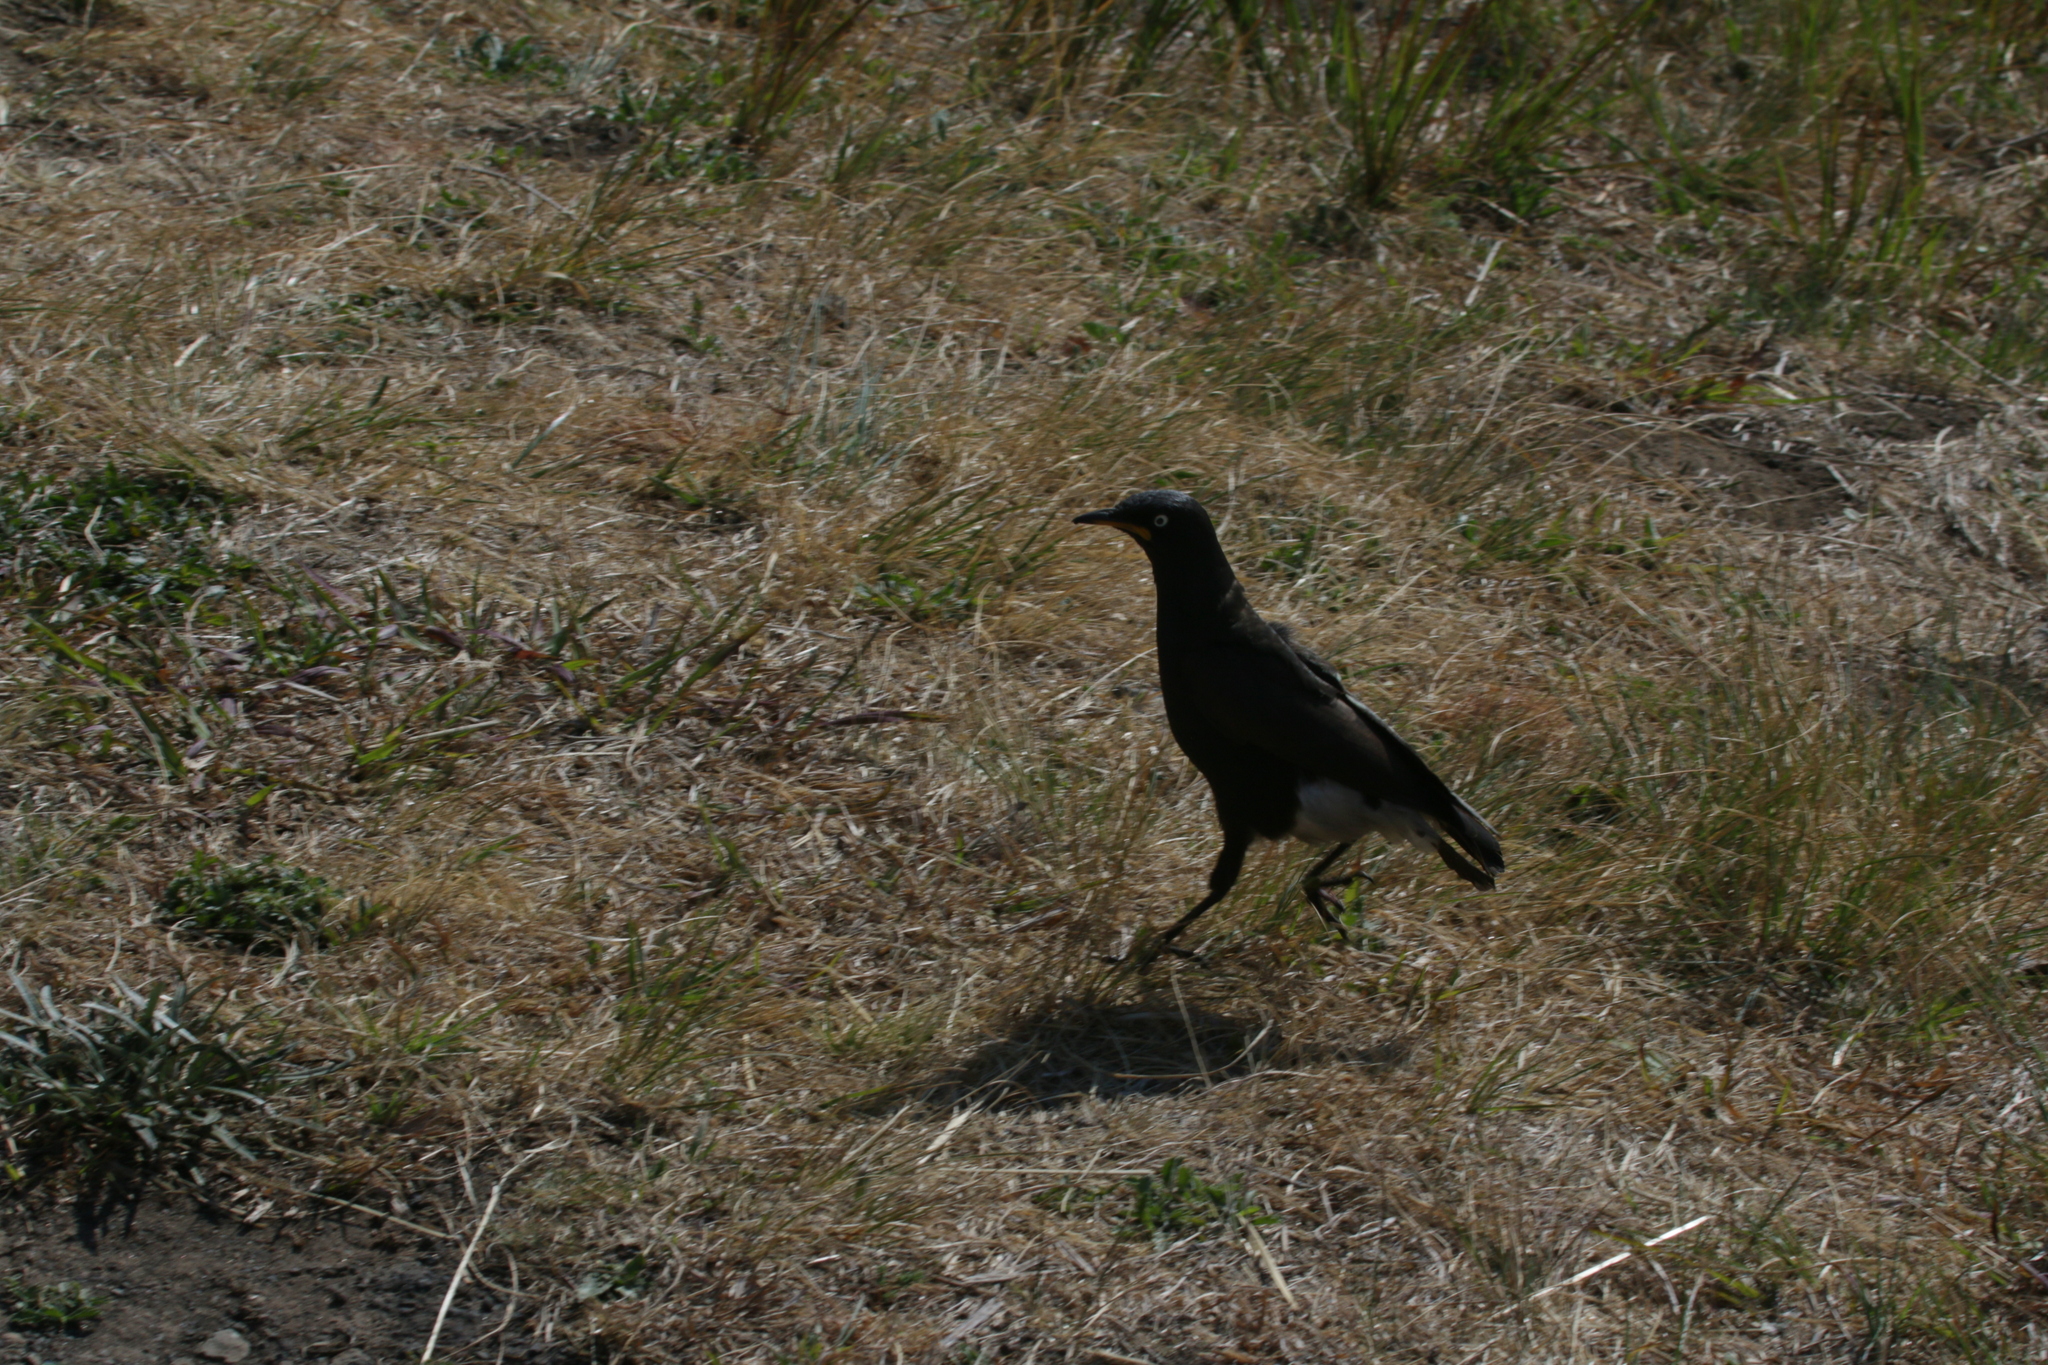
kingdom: Animalia
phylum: Chordata
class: Aves
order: Passeriformes
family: Sturnidae
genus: Lamprotornis
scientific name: Lamprotornis bicolor
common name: Pied starling
